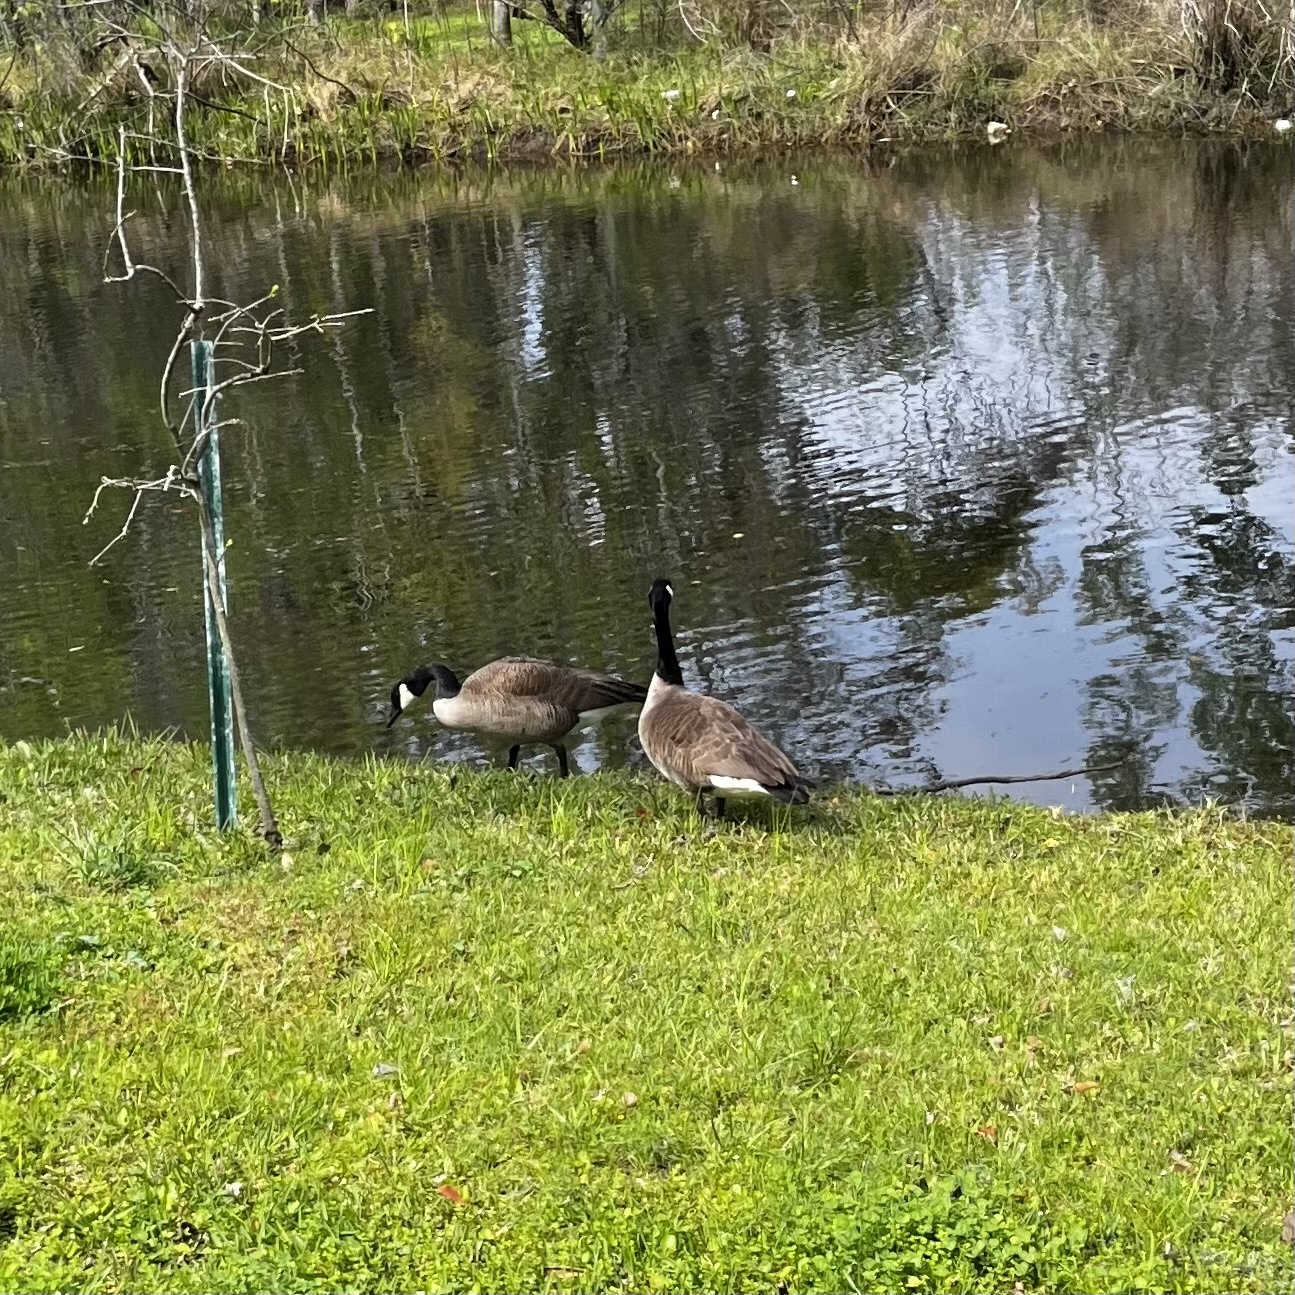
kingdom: Animalia
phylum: Chordata
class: Aves
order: Anseriformes
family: Anatidae
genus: Branta
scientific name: Branta canadensis
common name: Canada goose
